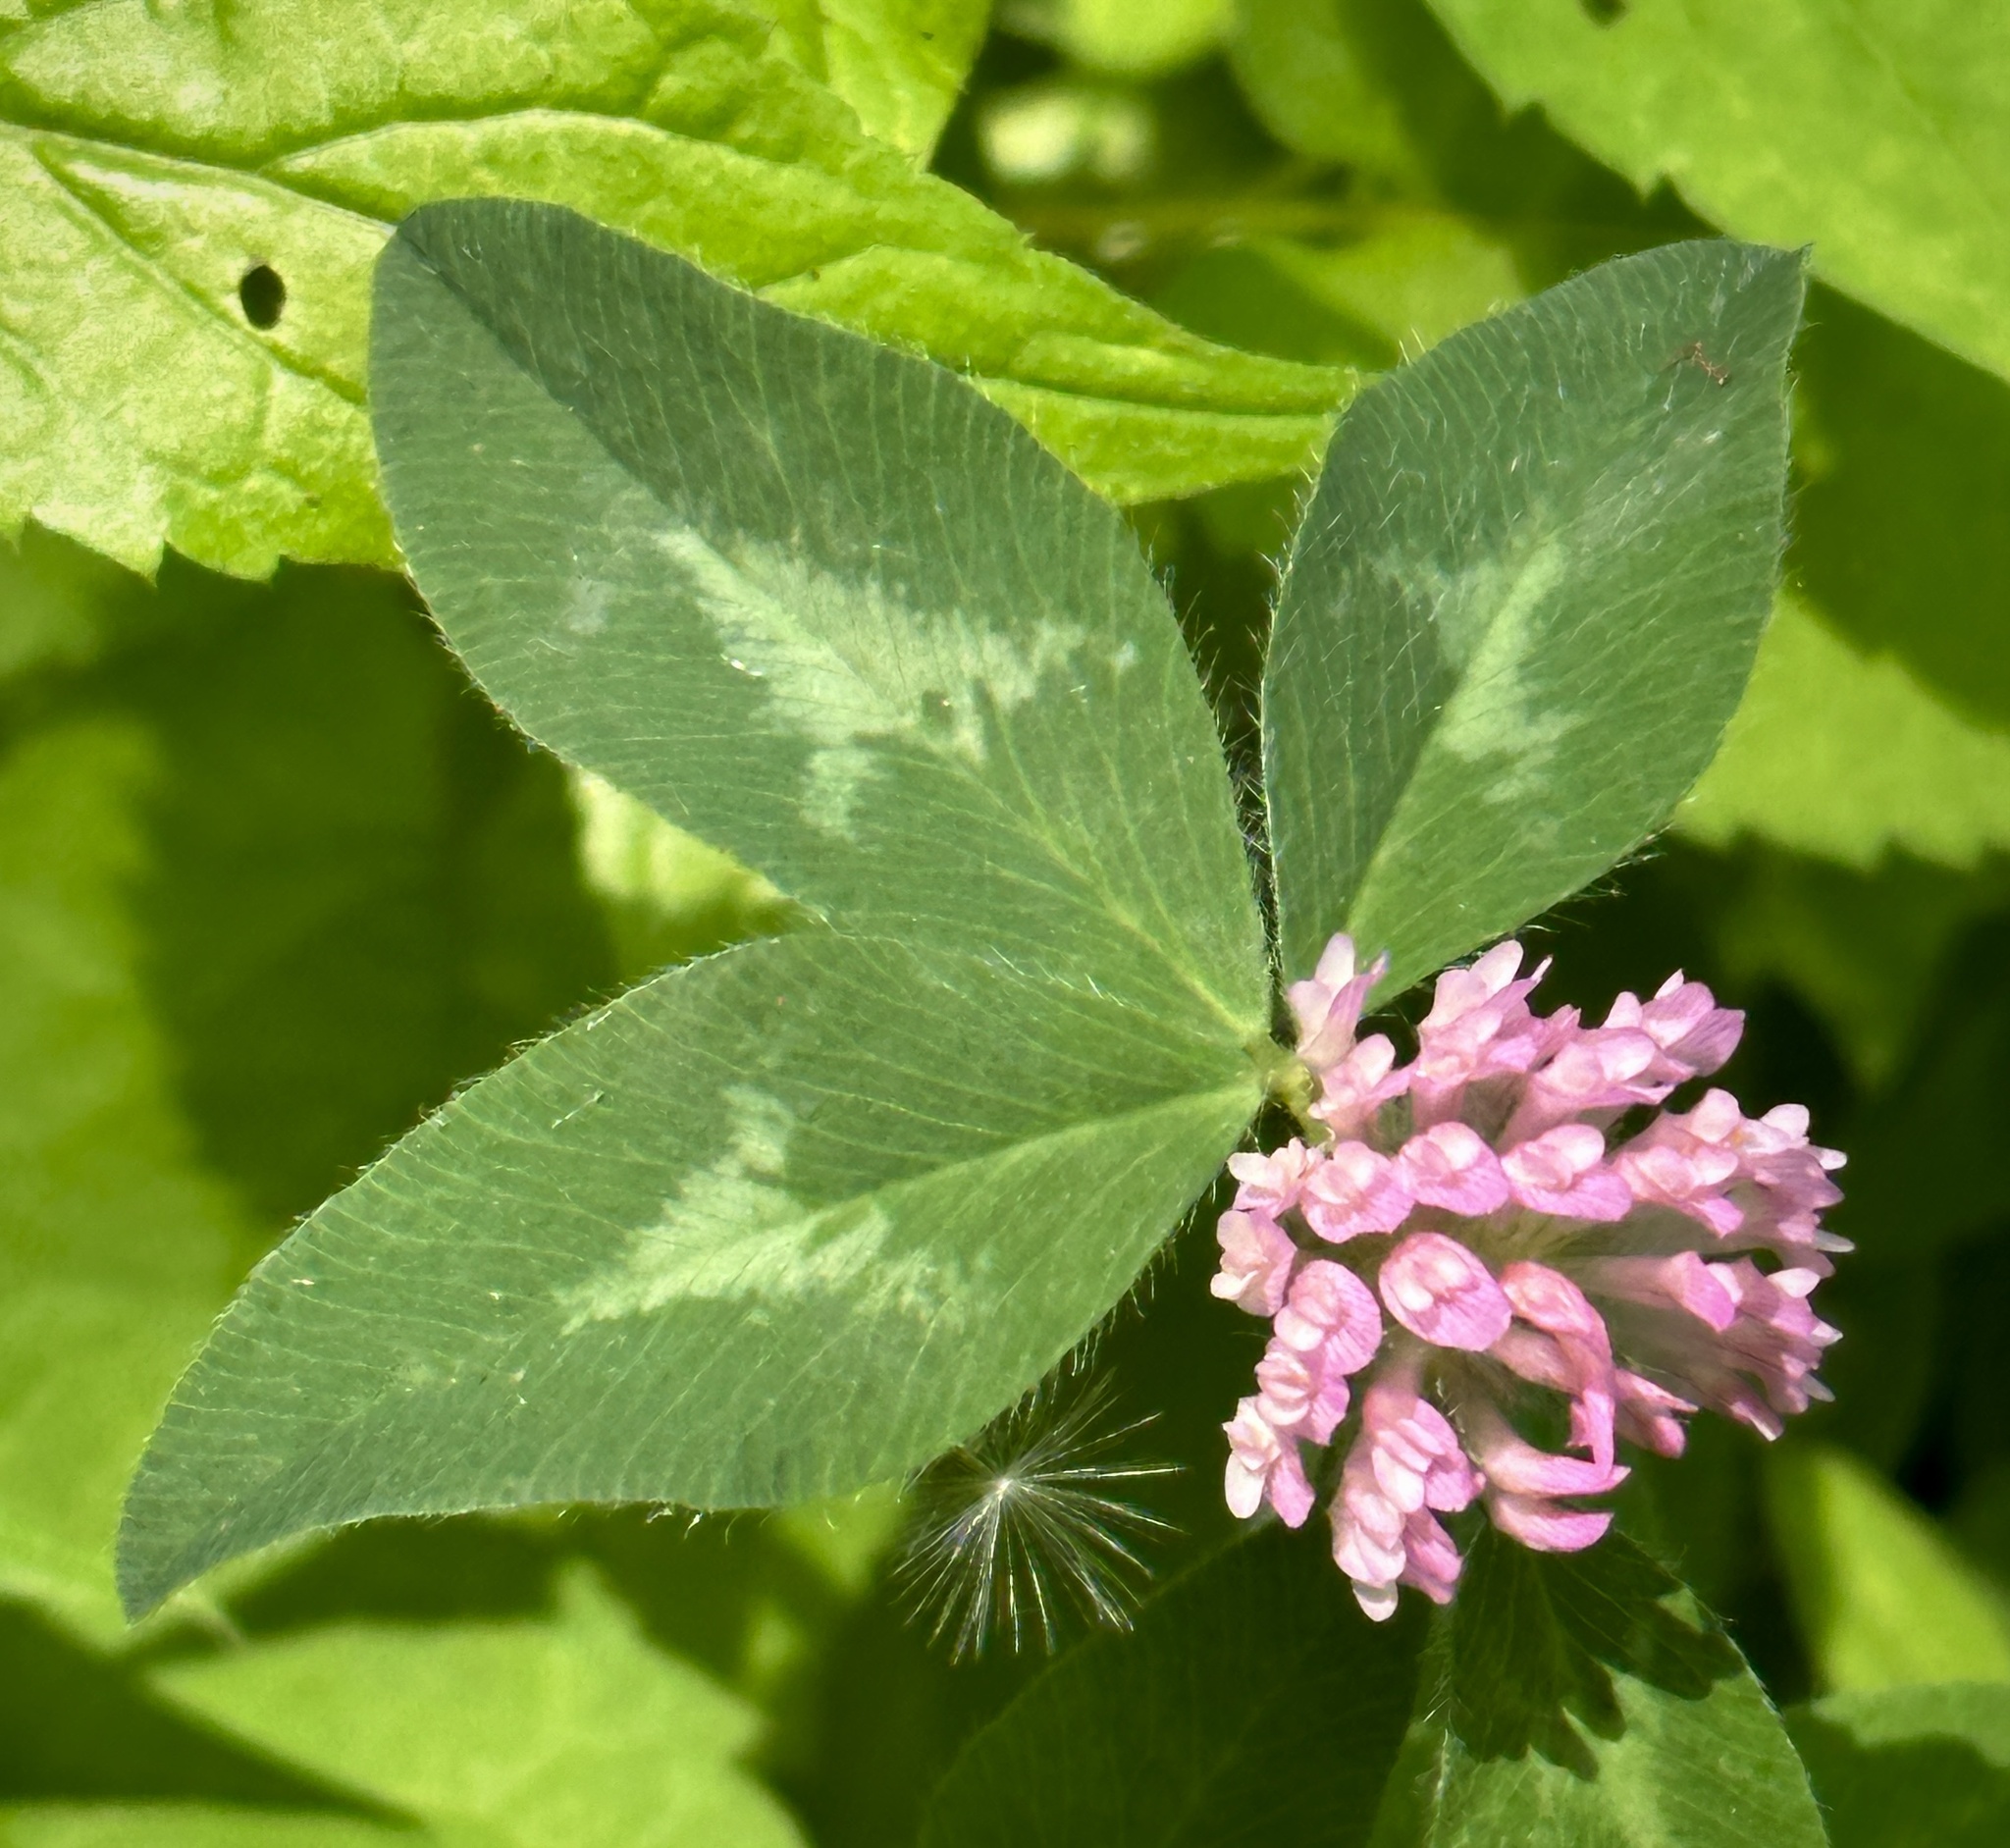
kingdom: Plantae
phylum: Tracheophyta
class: Magnoliopsida
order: Fabales
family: Fabaceae
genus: Trifolium
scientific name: Trifolium pratense
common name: Red clover
